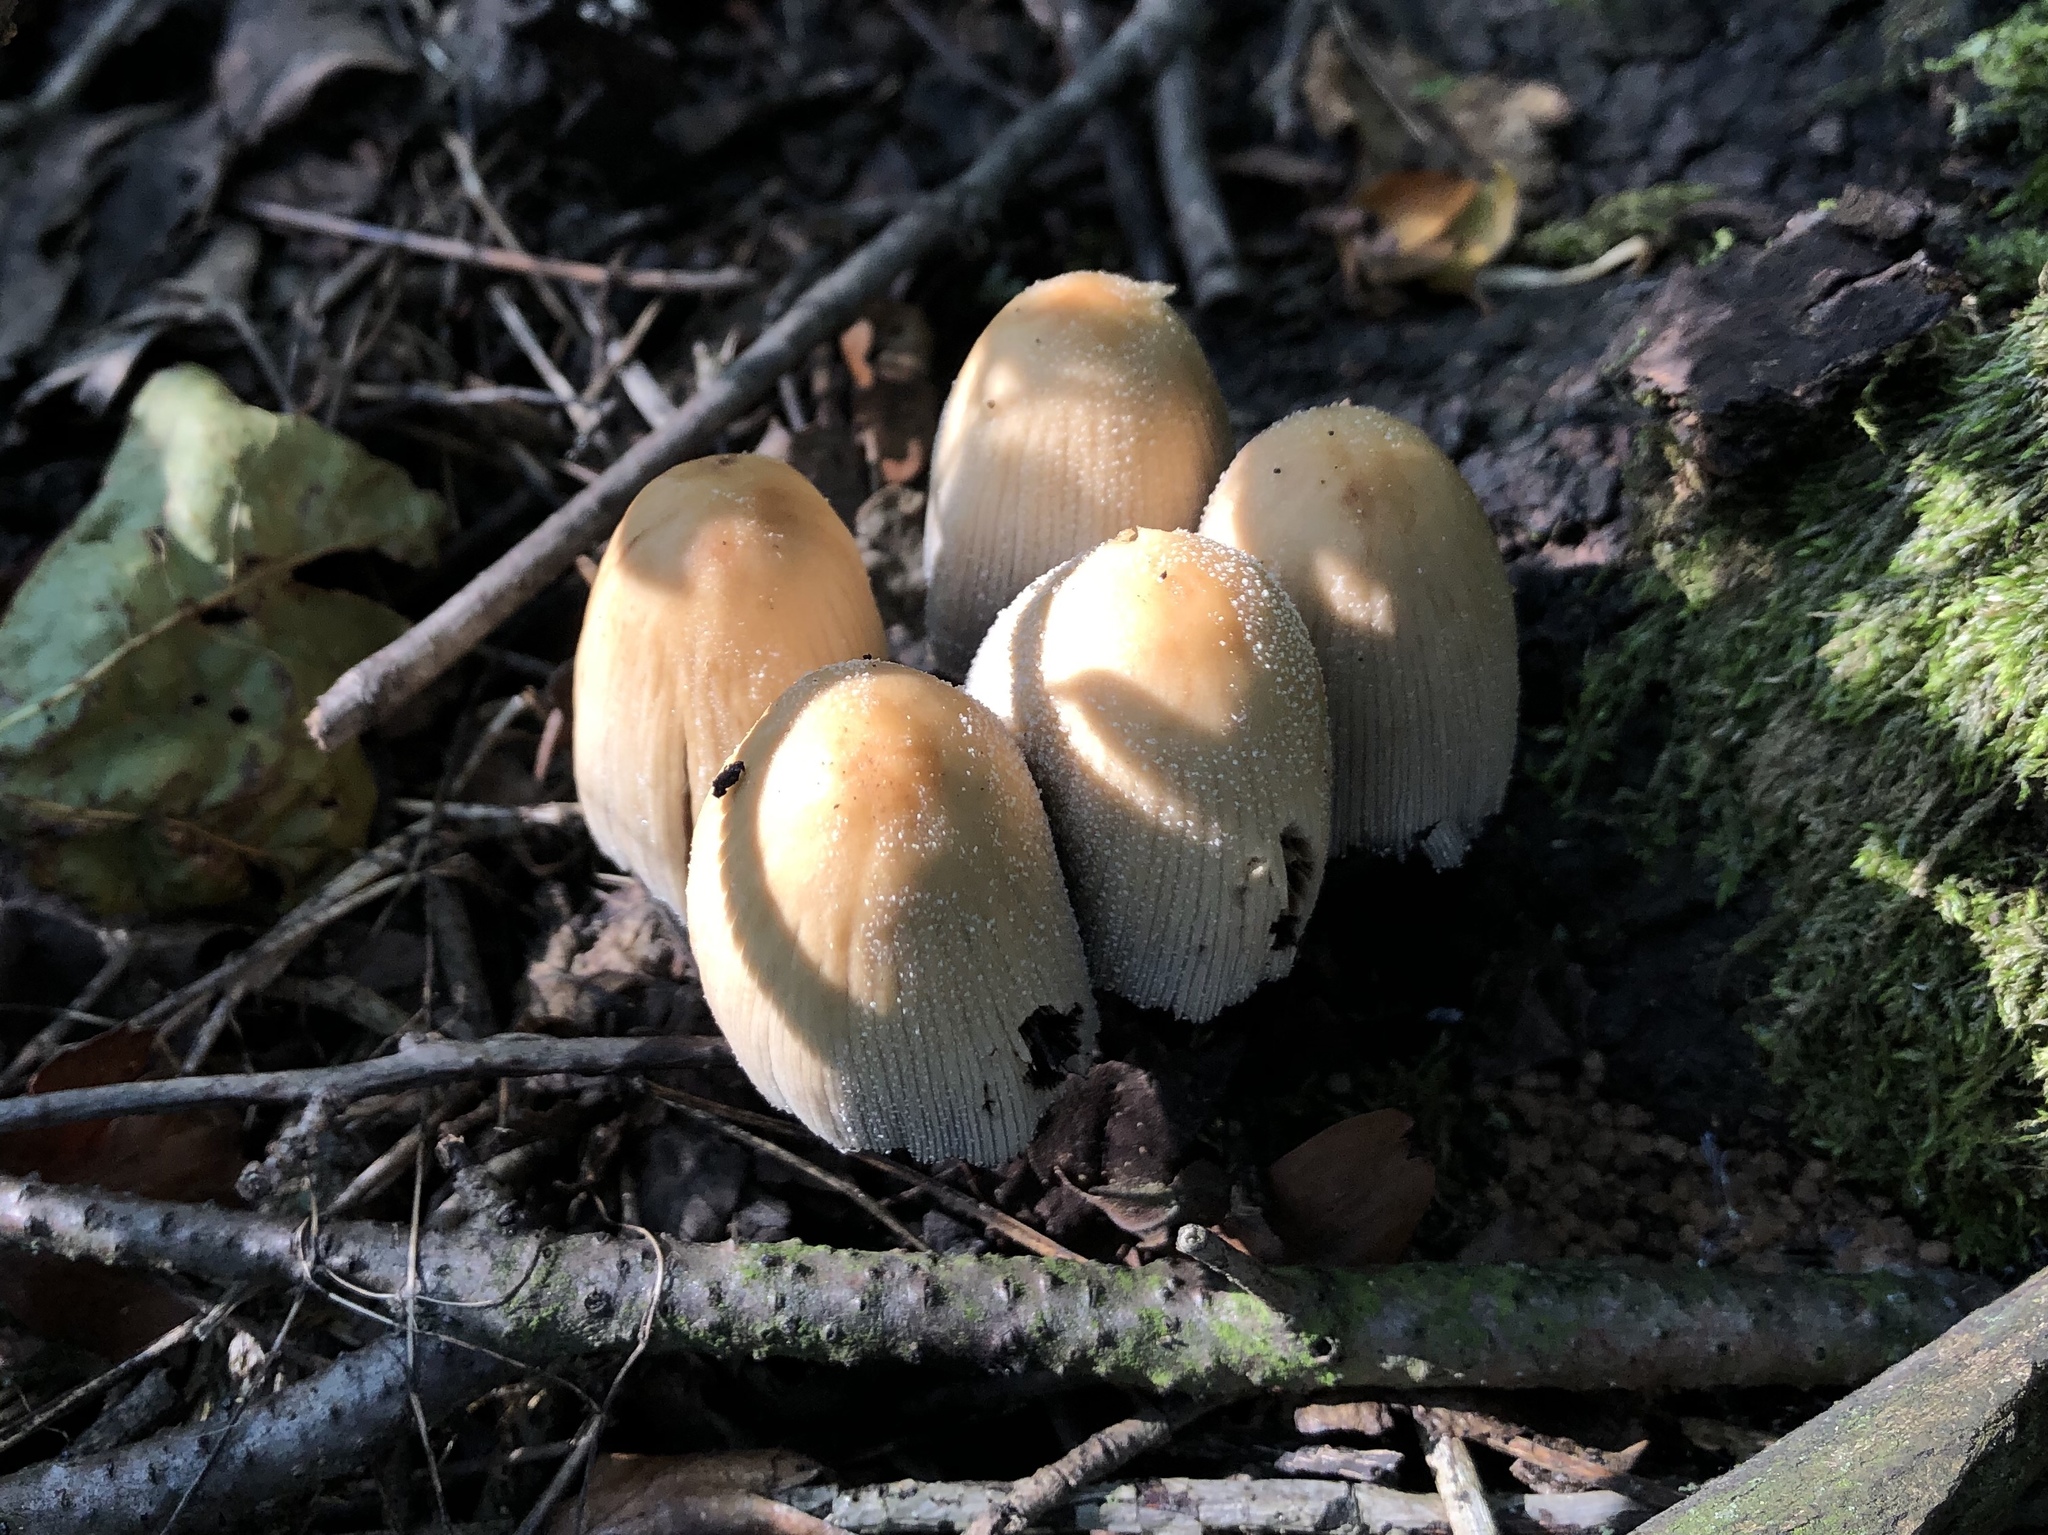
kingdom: Fungi
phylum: Basidiomycota
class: Agaricomycetes
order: Agaricales
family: Psathyrellaceae
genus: Coprinellus
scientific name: Coprinellus micaceus
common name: Glistening ink-cap
